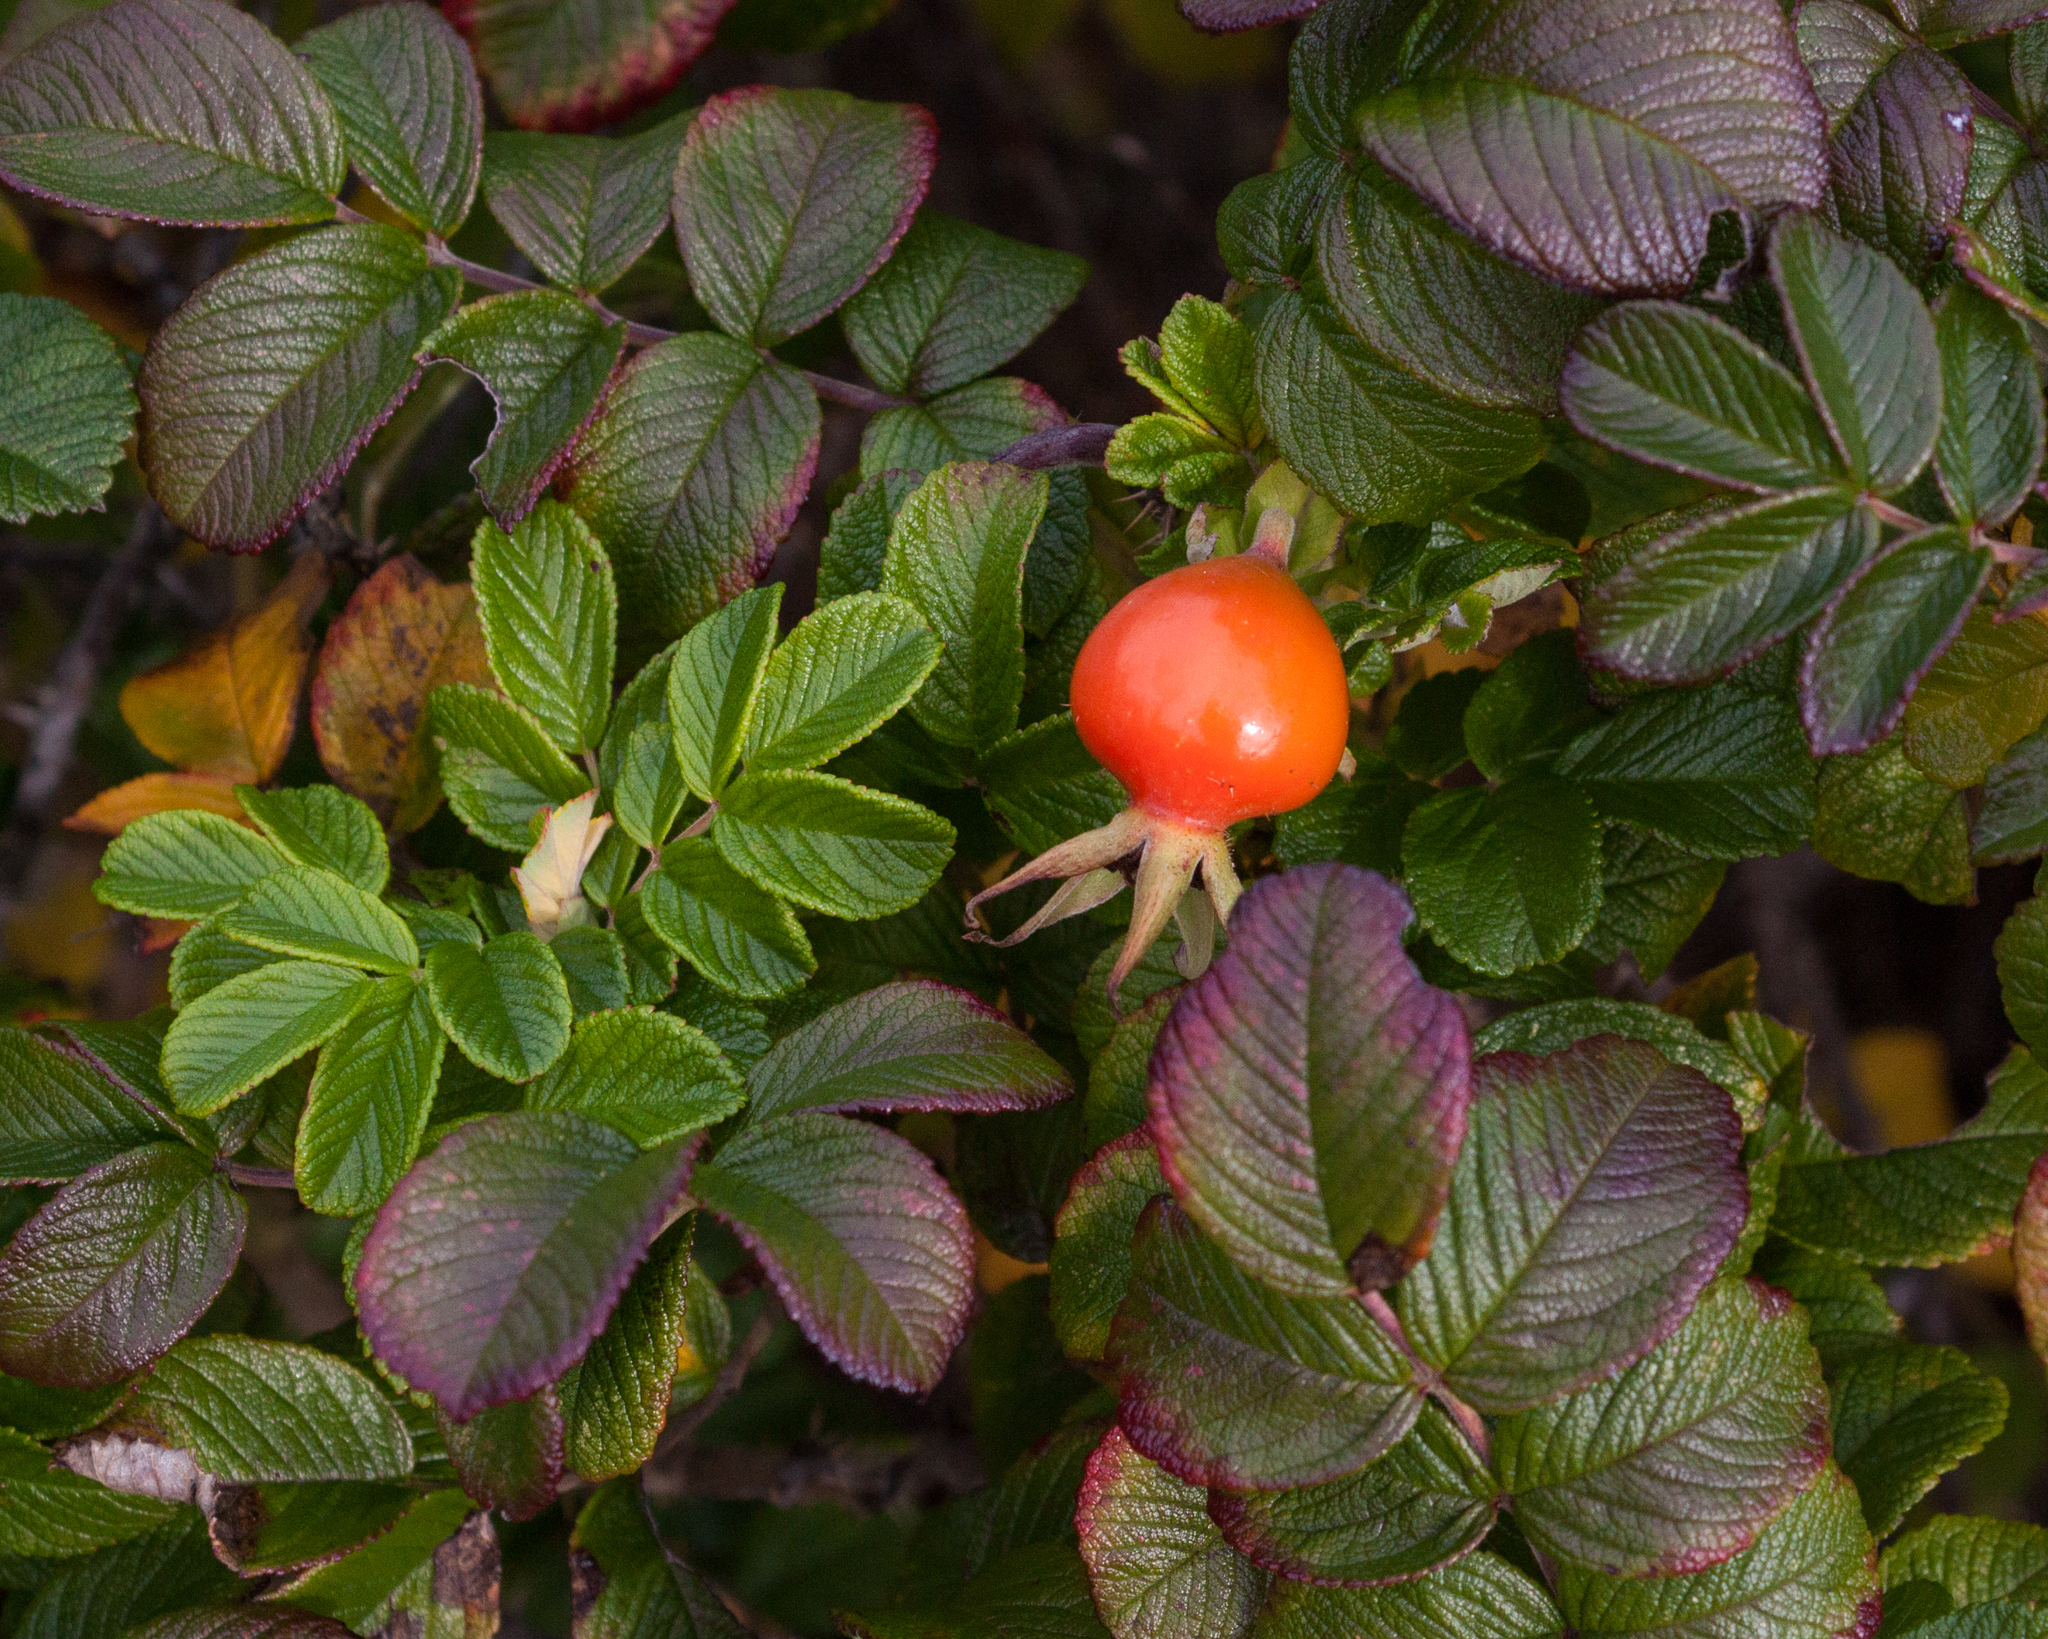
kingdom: Plantae
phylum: Tracheophyta
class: Magnoliopsida
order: Rosales
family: Rosaceae
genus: Rosa
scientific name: Rosa rugosa
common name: Japanese rose
